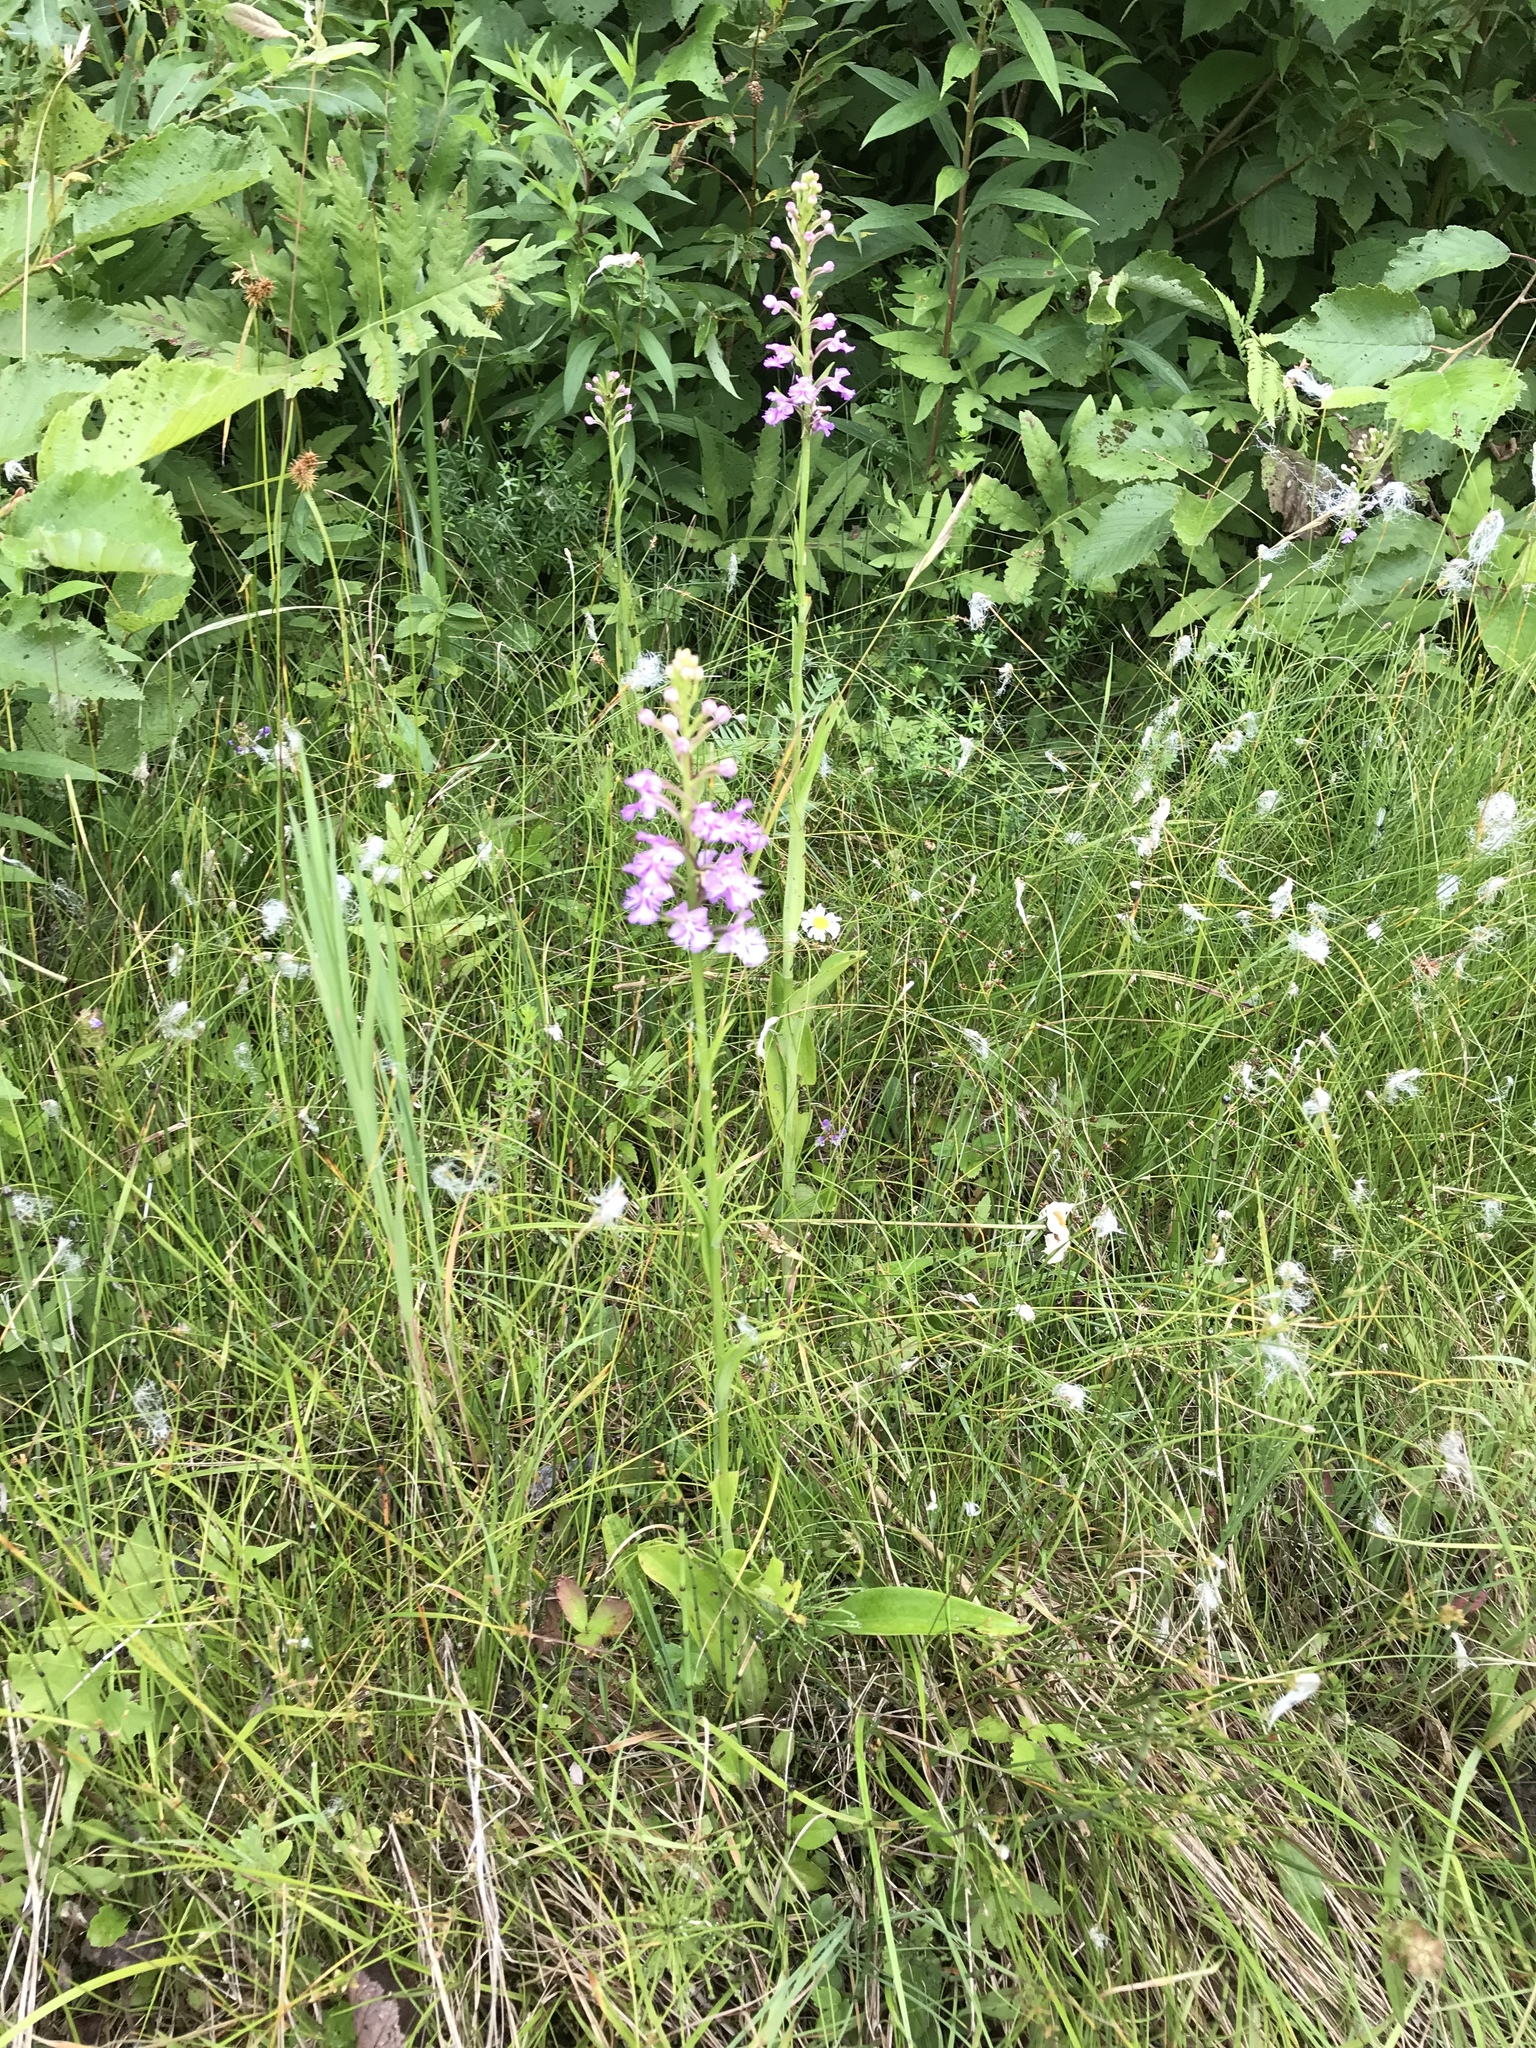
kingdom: Plantae
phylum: Tracheophyta
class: Liliopsida
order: Asparagales
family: Orchidaceae
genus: Platanthera
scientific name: Platanthera psycodes
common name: Lesser purple fringed orchid
